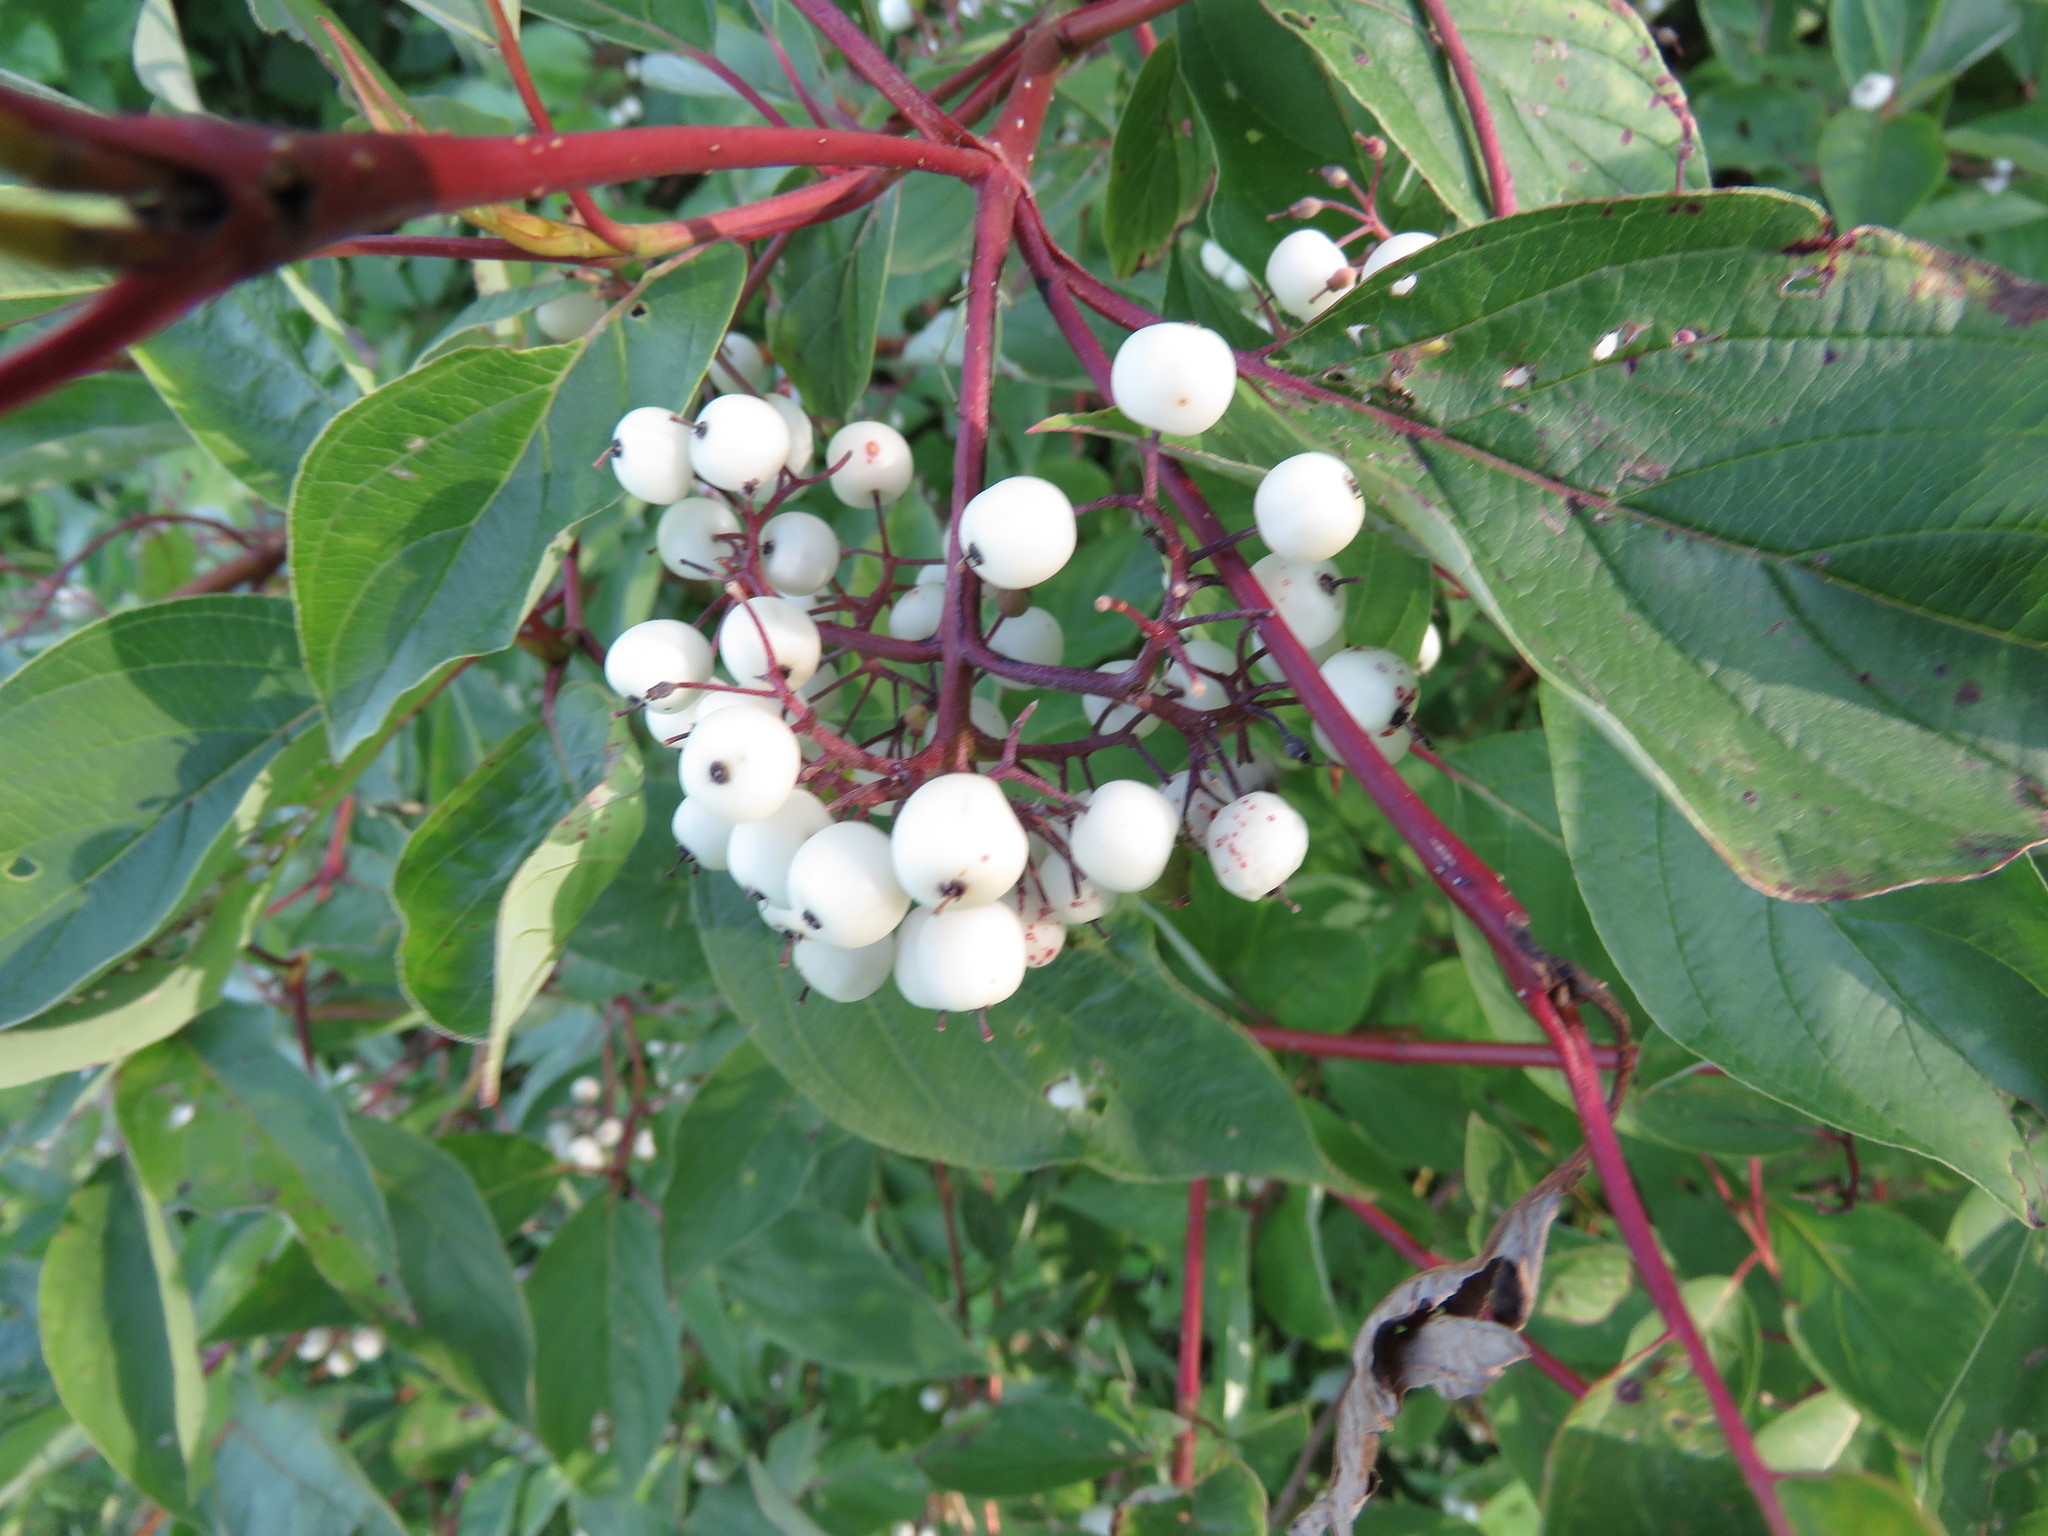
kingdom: Plantae
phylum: Tracheophyta
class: Magnoliopsida
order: Cornales
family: Cornaceae
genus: Cornus
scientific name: Cornus sericea
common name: Red-osier dogwood
